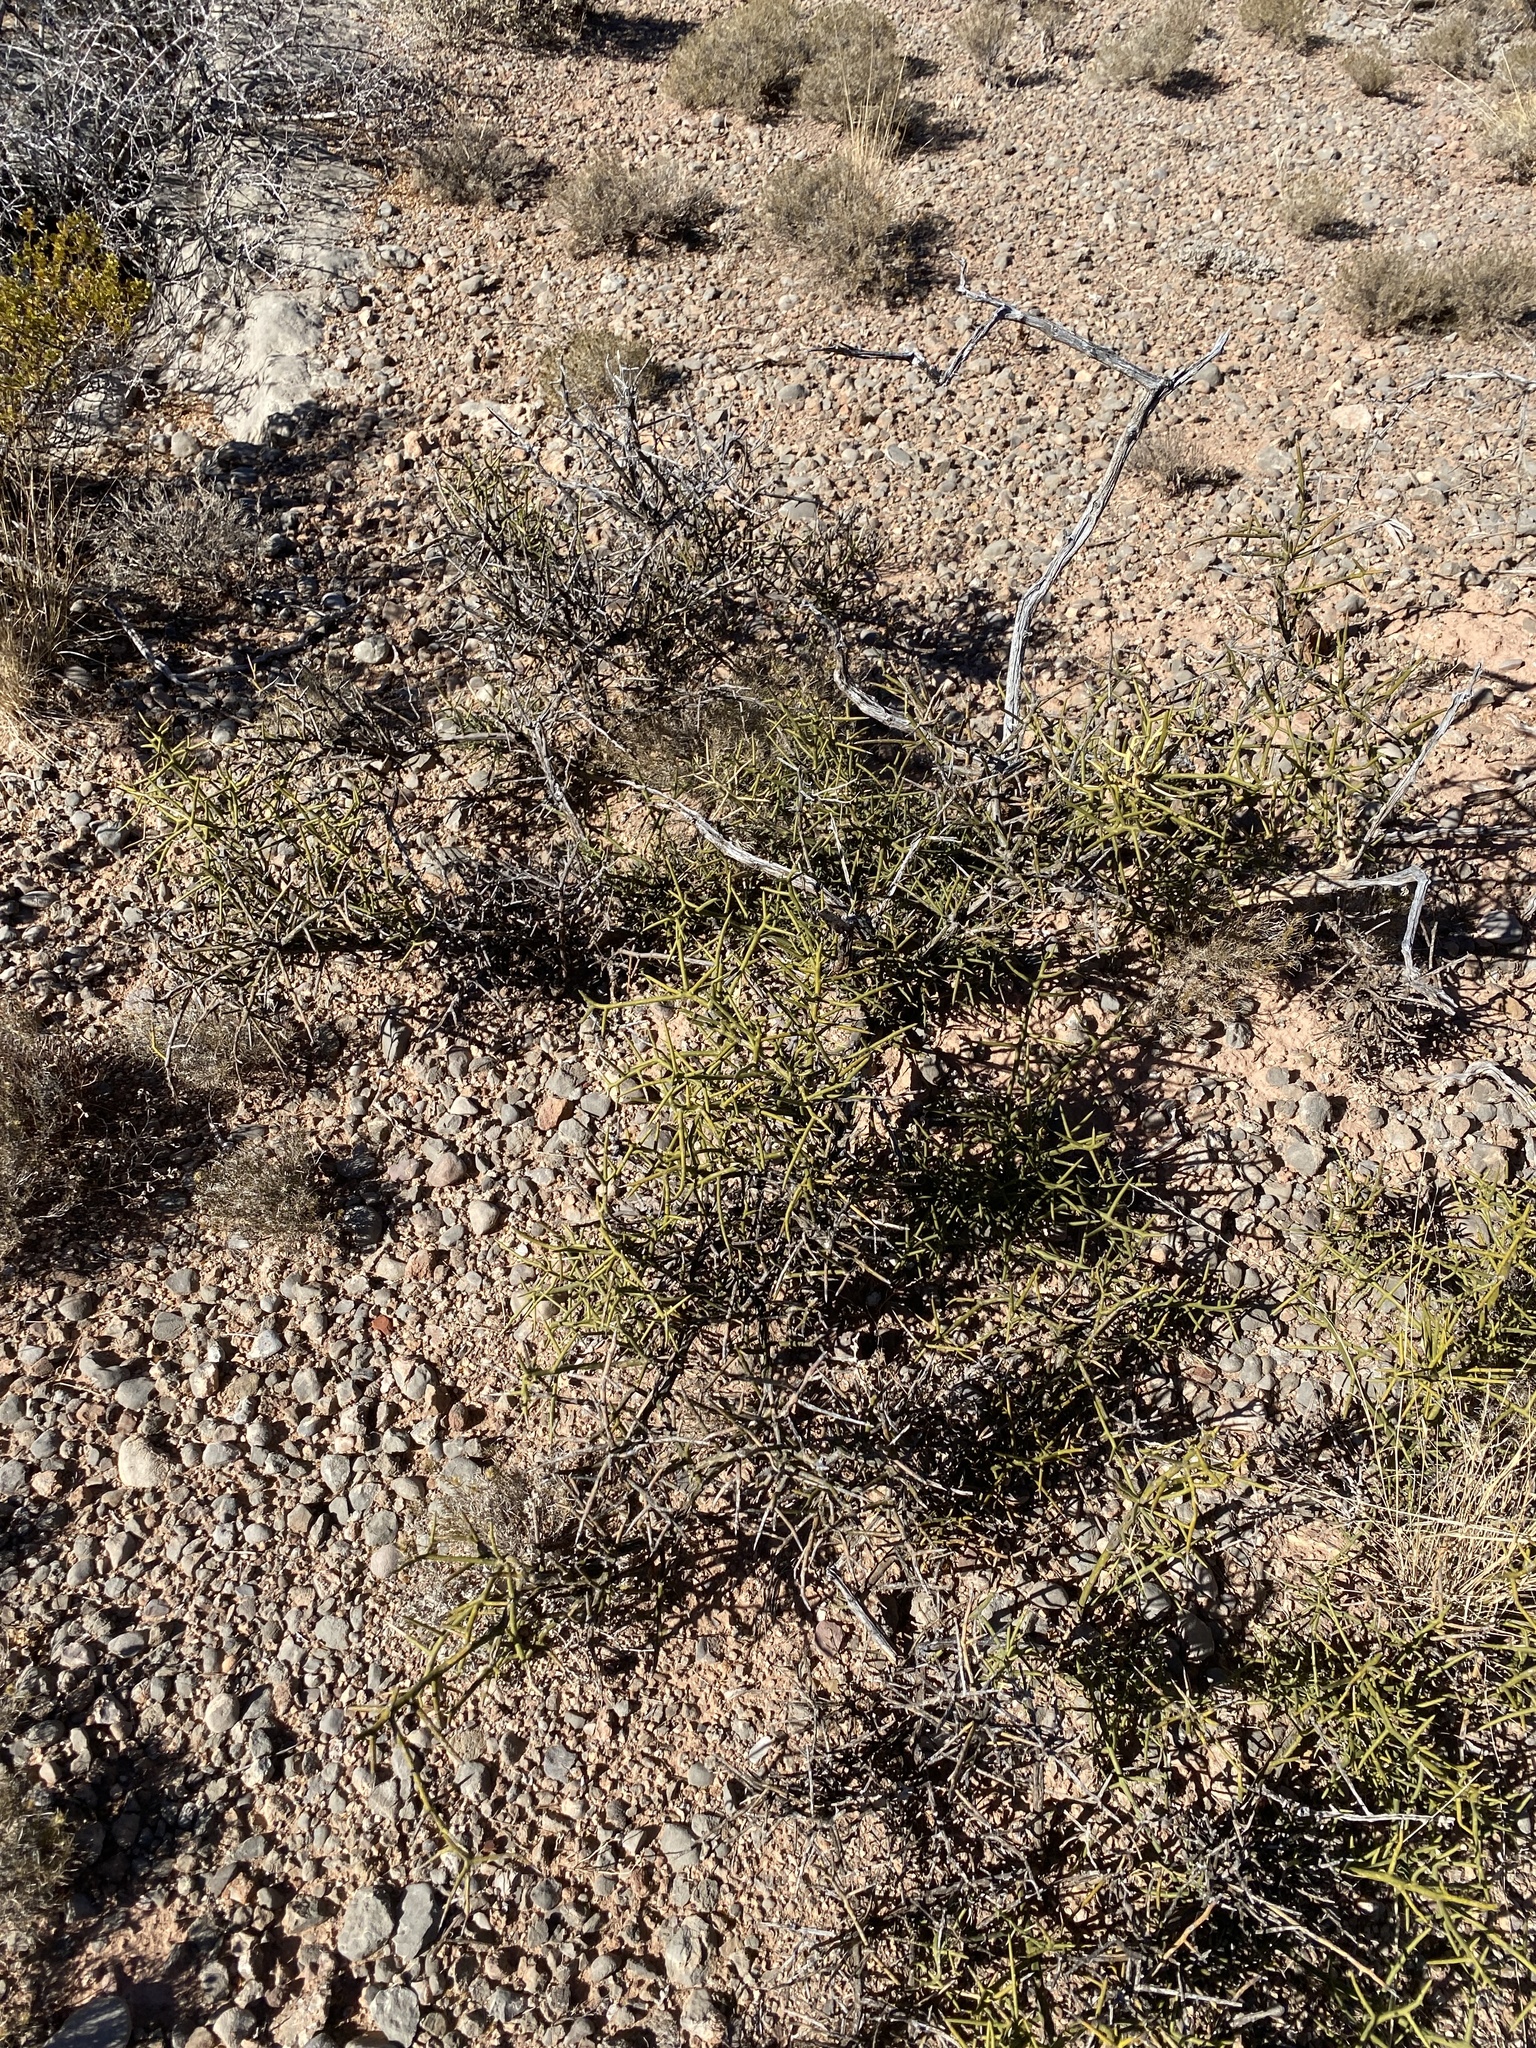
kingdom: Plantae
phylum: Tracheophyta
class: Magnoliopsida
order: Brassicales
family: Koeberliniaceae
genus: Koeberlinia
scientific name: Koeberlinia spinosa
